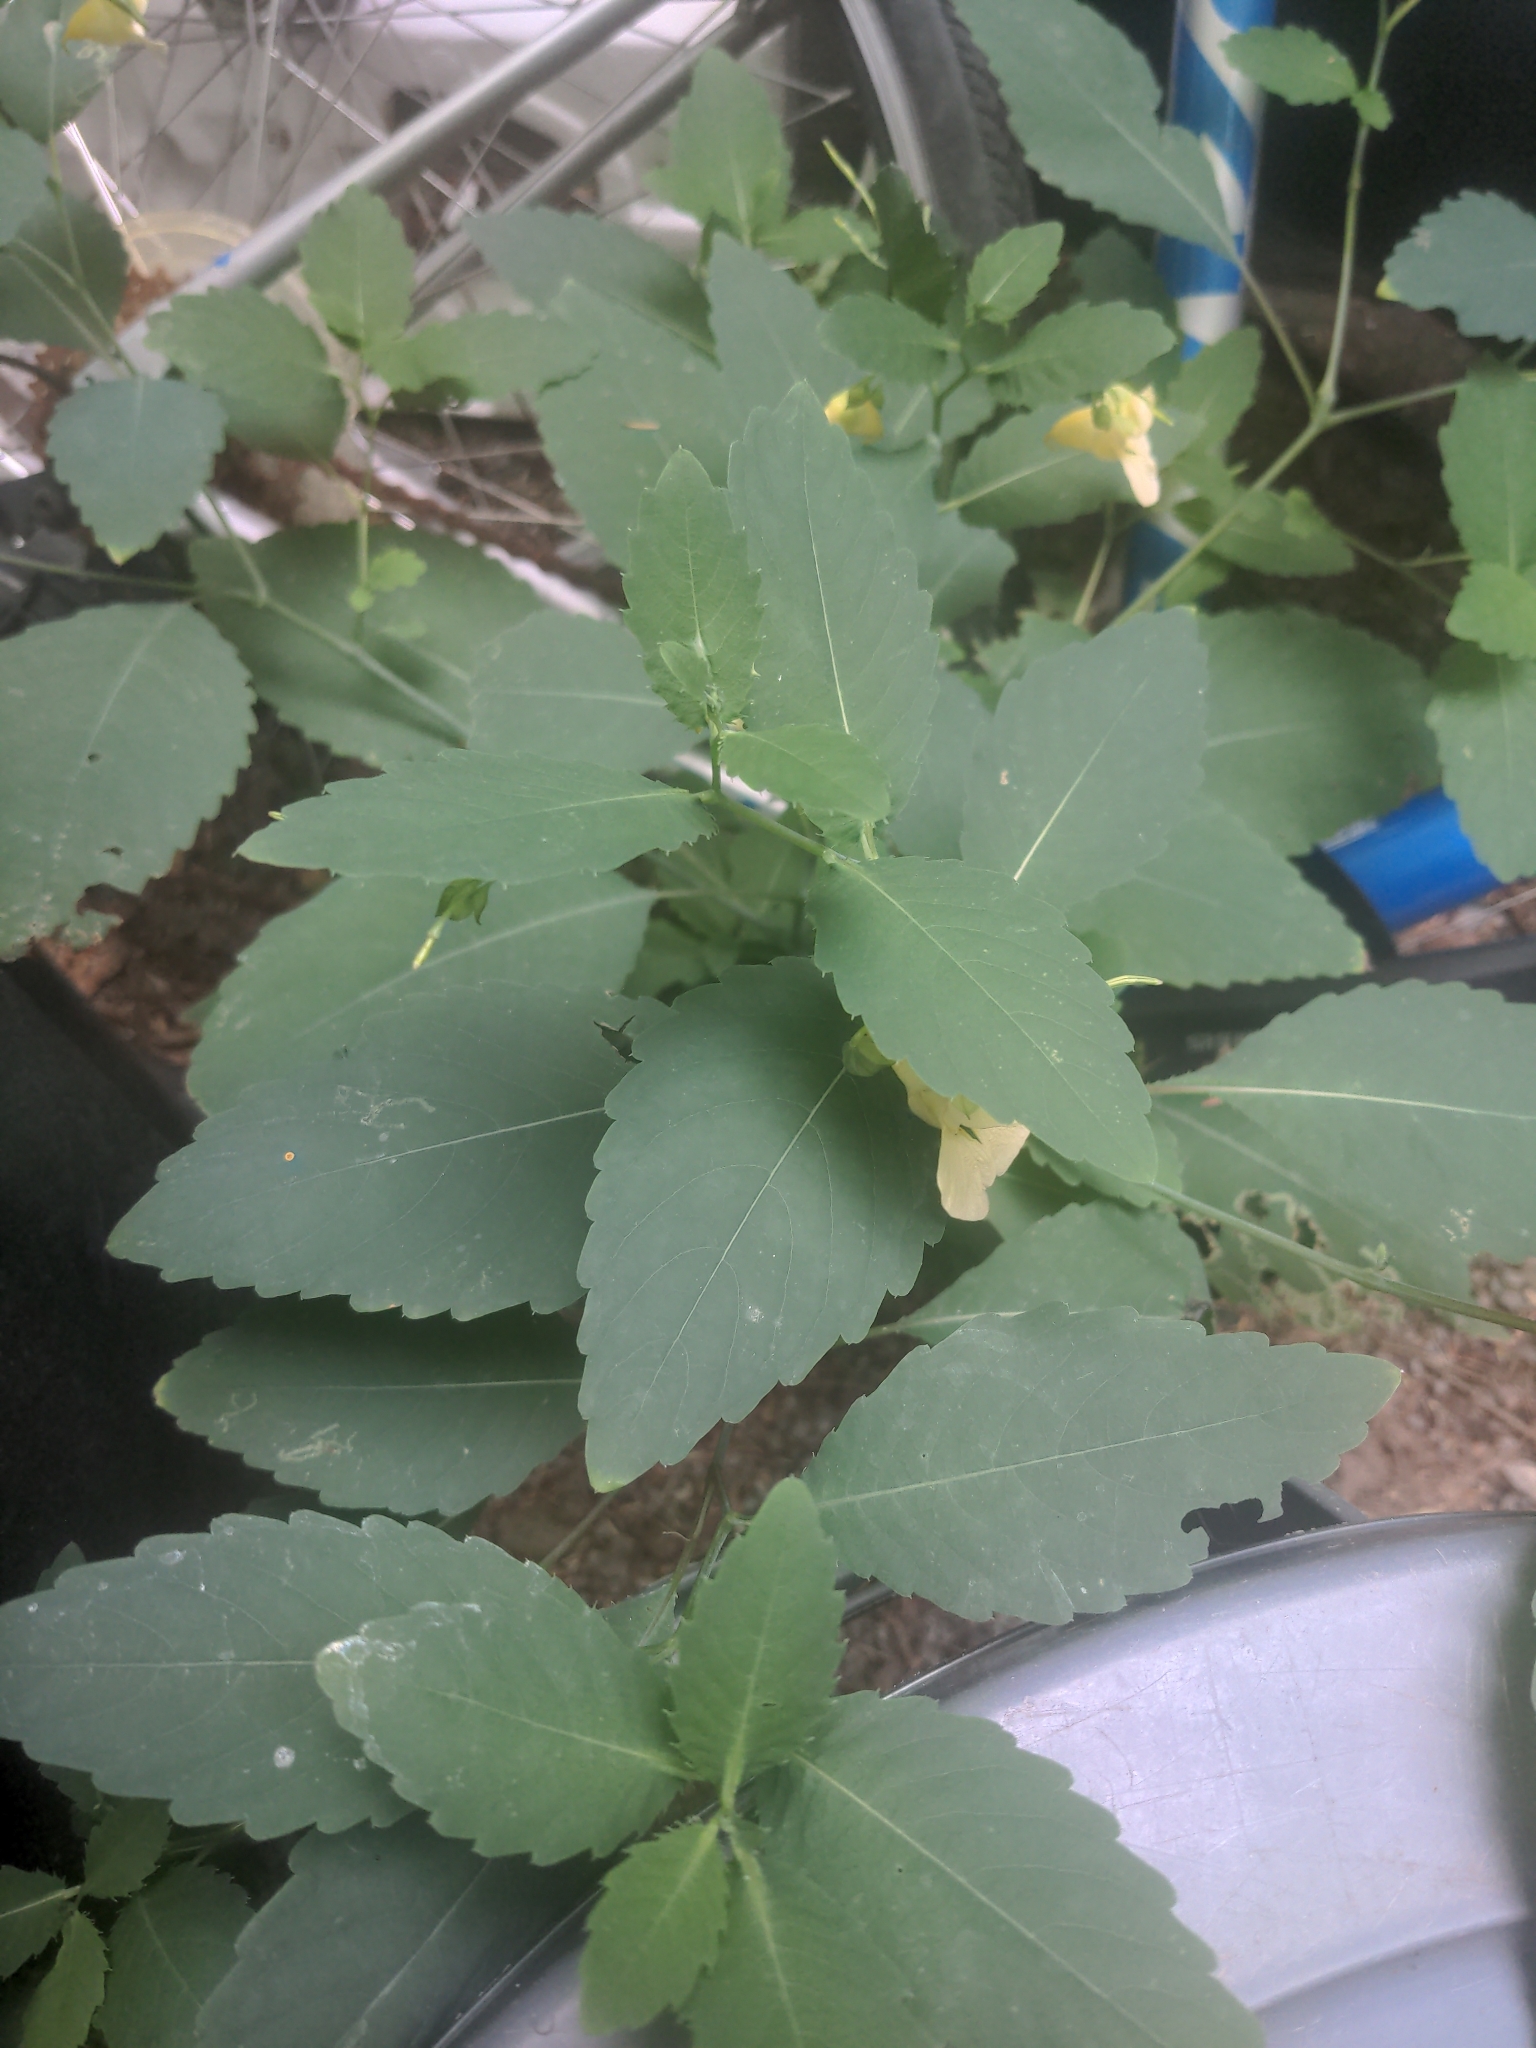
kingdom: Plantae
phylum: Tracheophyta
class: Magnoliopsida
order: Ericales
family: Balsaminaceae
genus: Impatiens
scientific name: Impatiens pallida
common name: Pale snapweed
